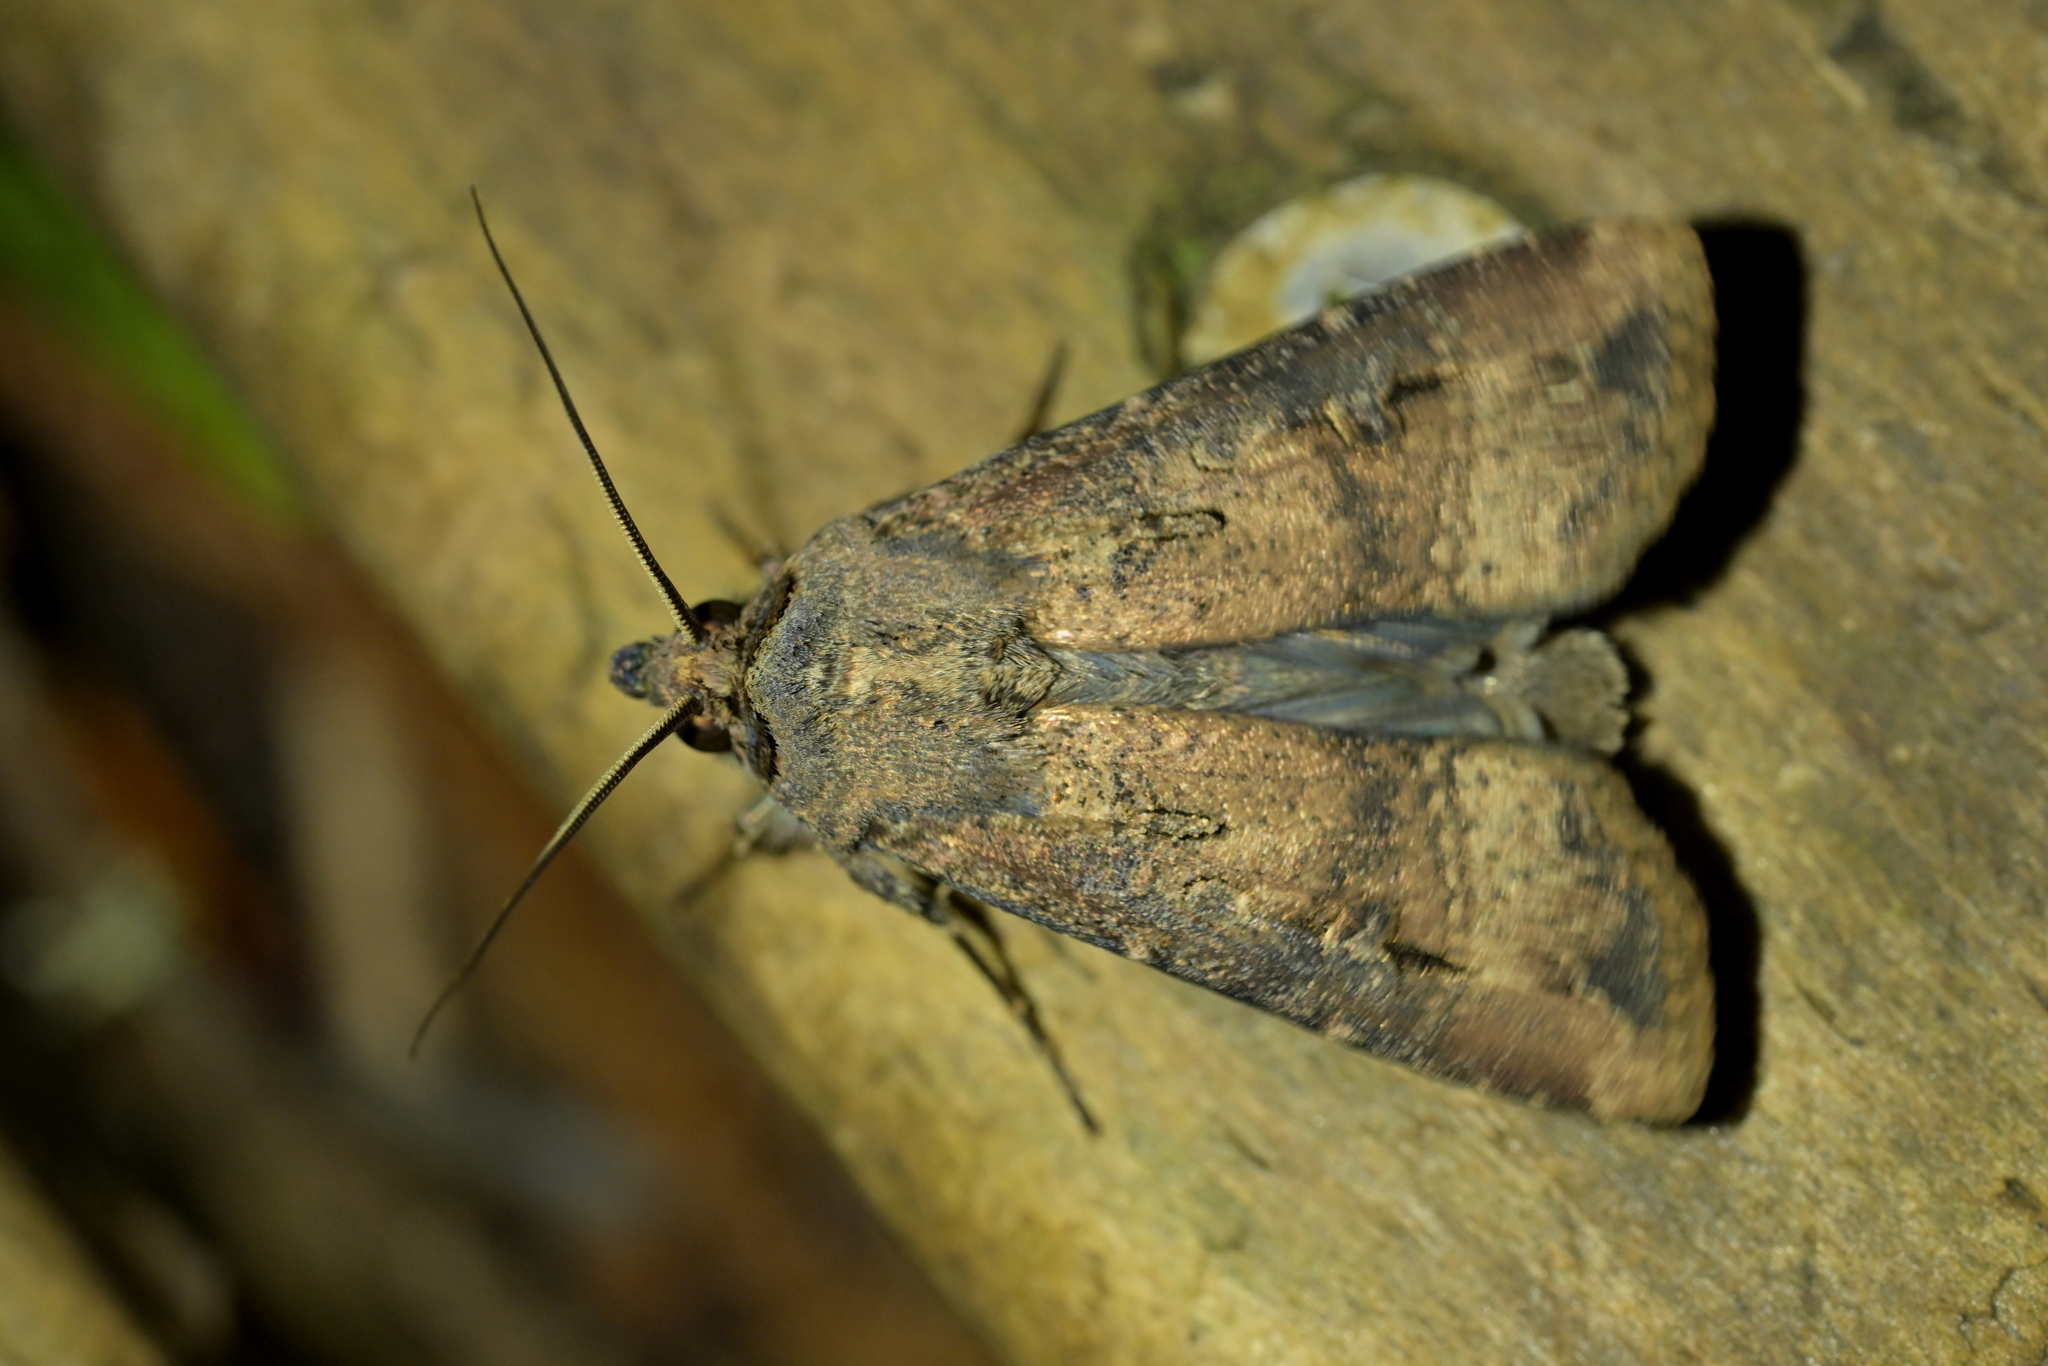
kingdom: Animalia
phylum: Arthropoda
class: Insecta
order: Lepidoptera
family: Noctuidae
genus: Agrotis
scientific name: Agrotis ipsilon
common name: Dark sword-grass
